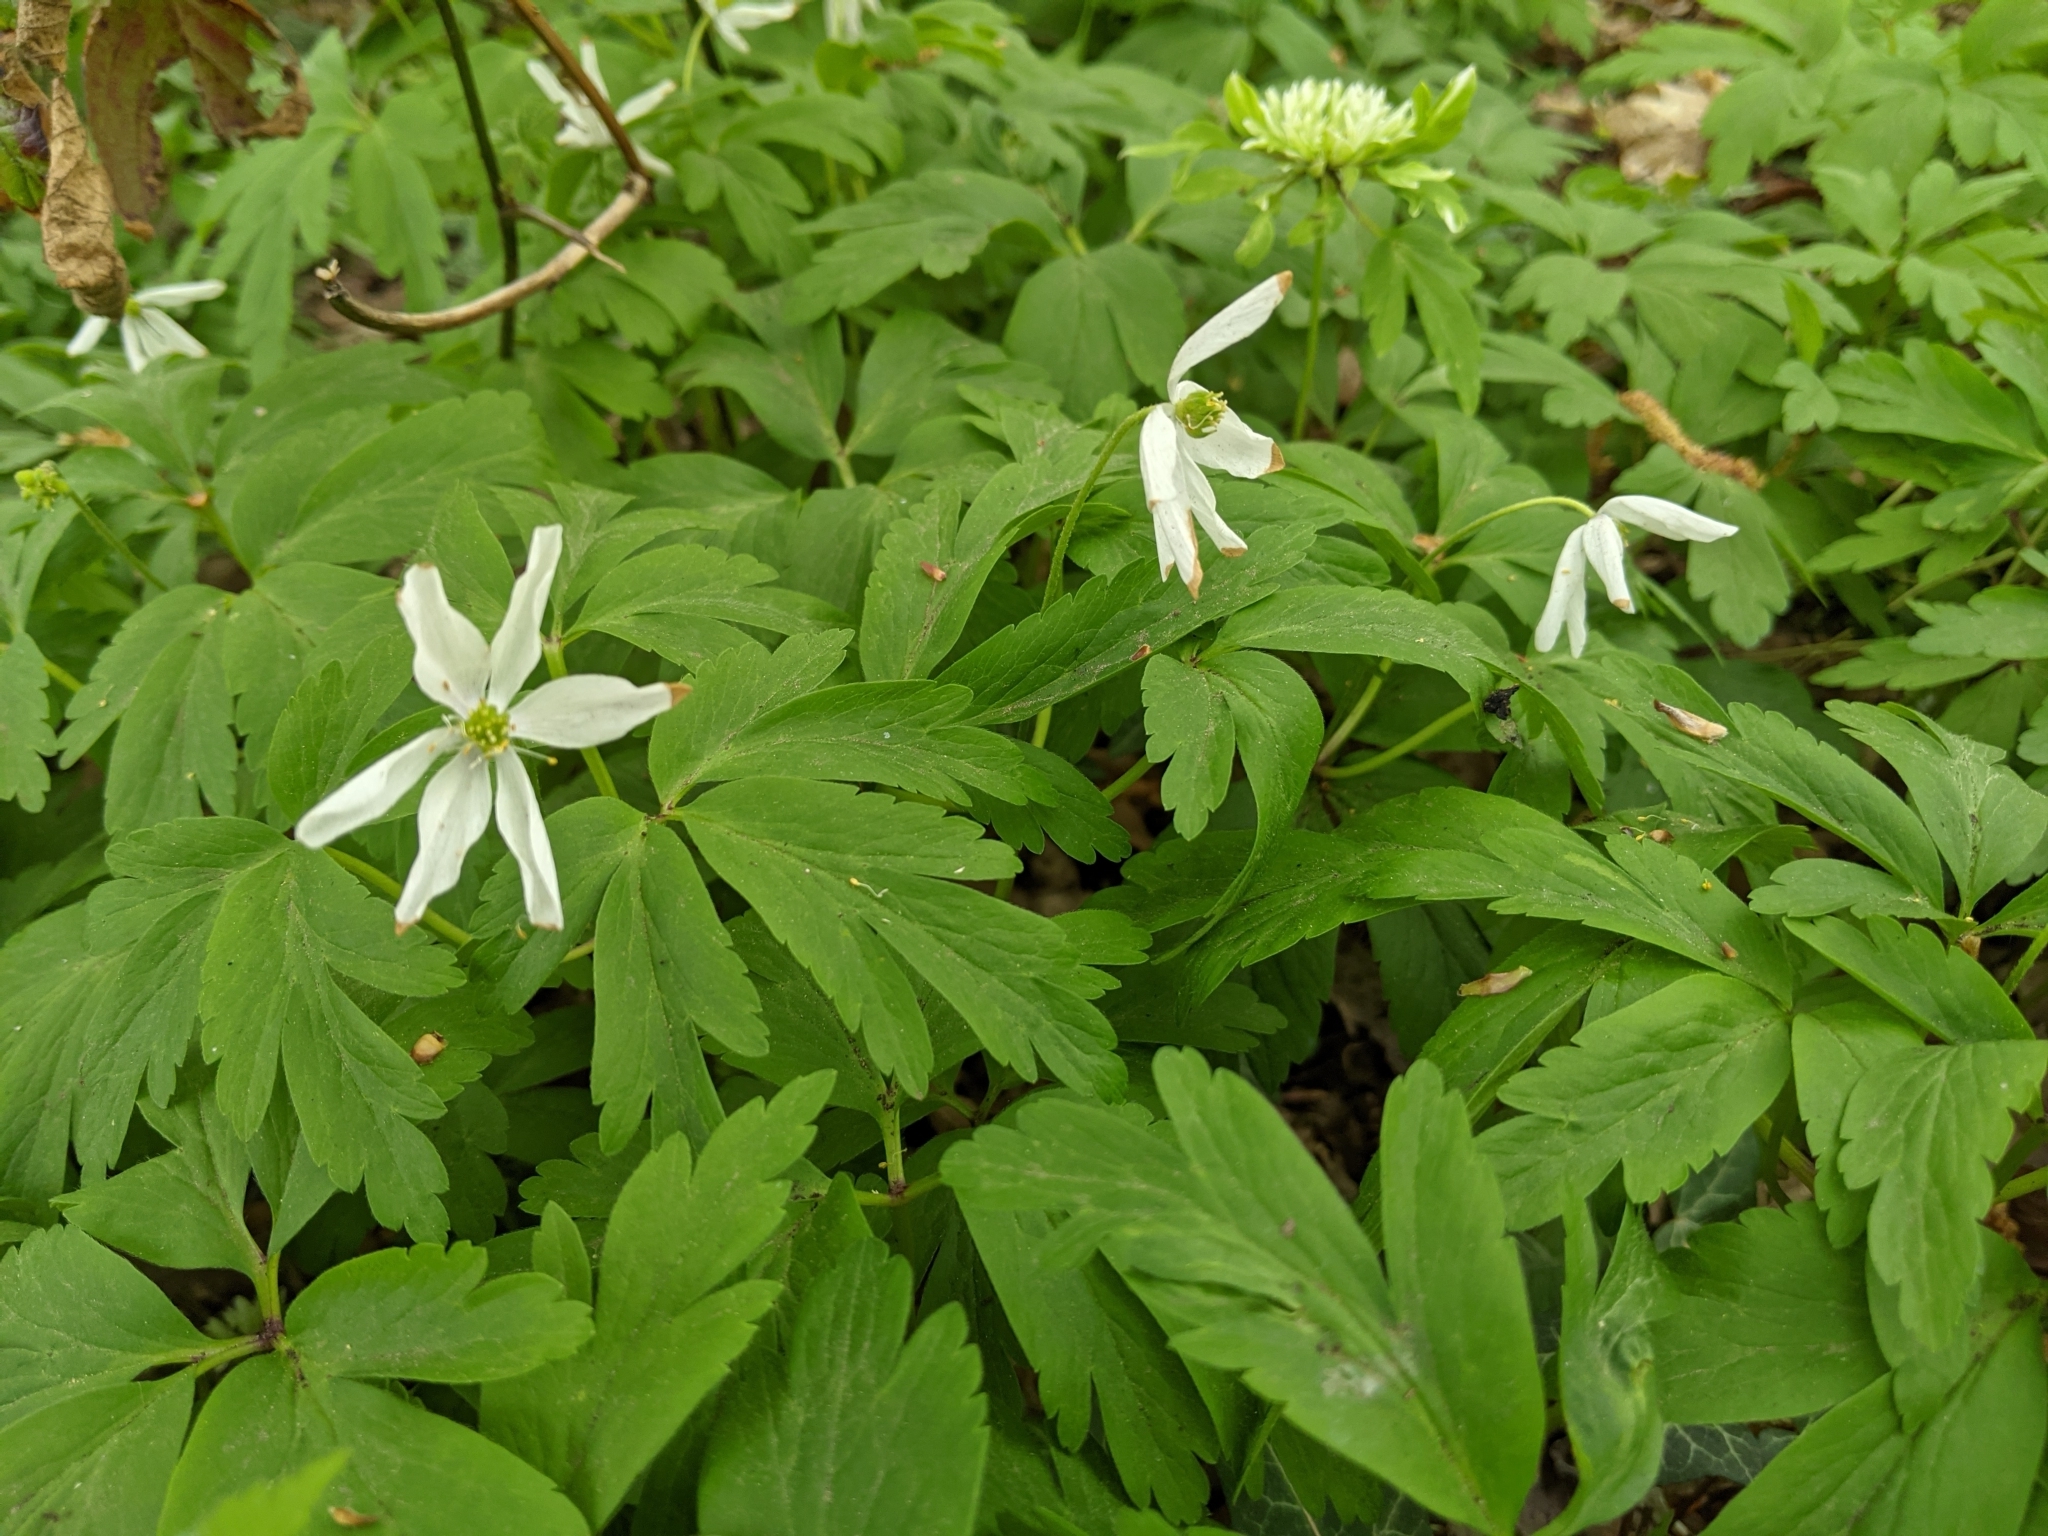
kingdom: Plantae
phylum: Tracheophyta
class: Magnoliopsida
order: Ranunculales
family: Ranunculaceae
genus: Anemone
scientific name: Anemone nemorosa
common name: Wood anemone
